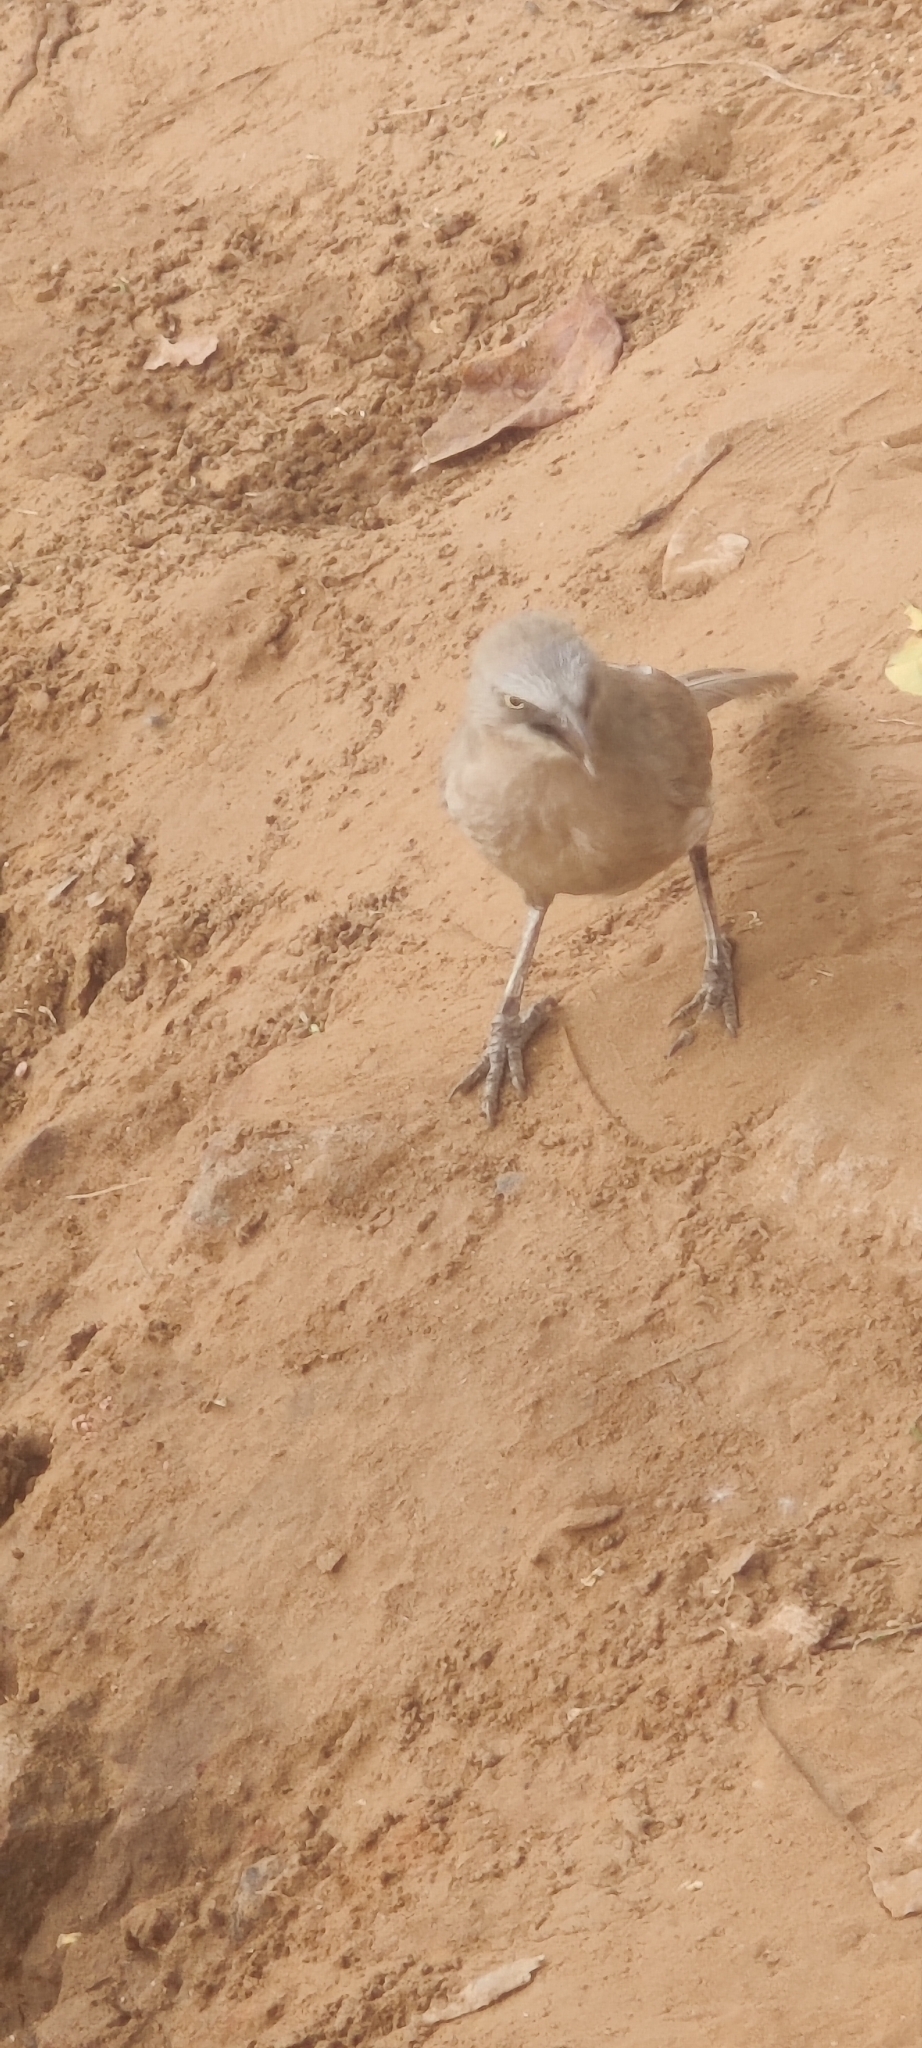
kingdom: Animalia
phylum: Chordata
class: Aves
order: Passeriformes
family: Leiothrichidae
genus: Turdoides
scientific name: Turdoides malcolmi
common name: Large grey babbler
